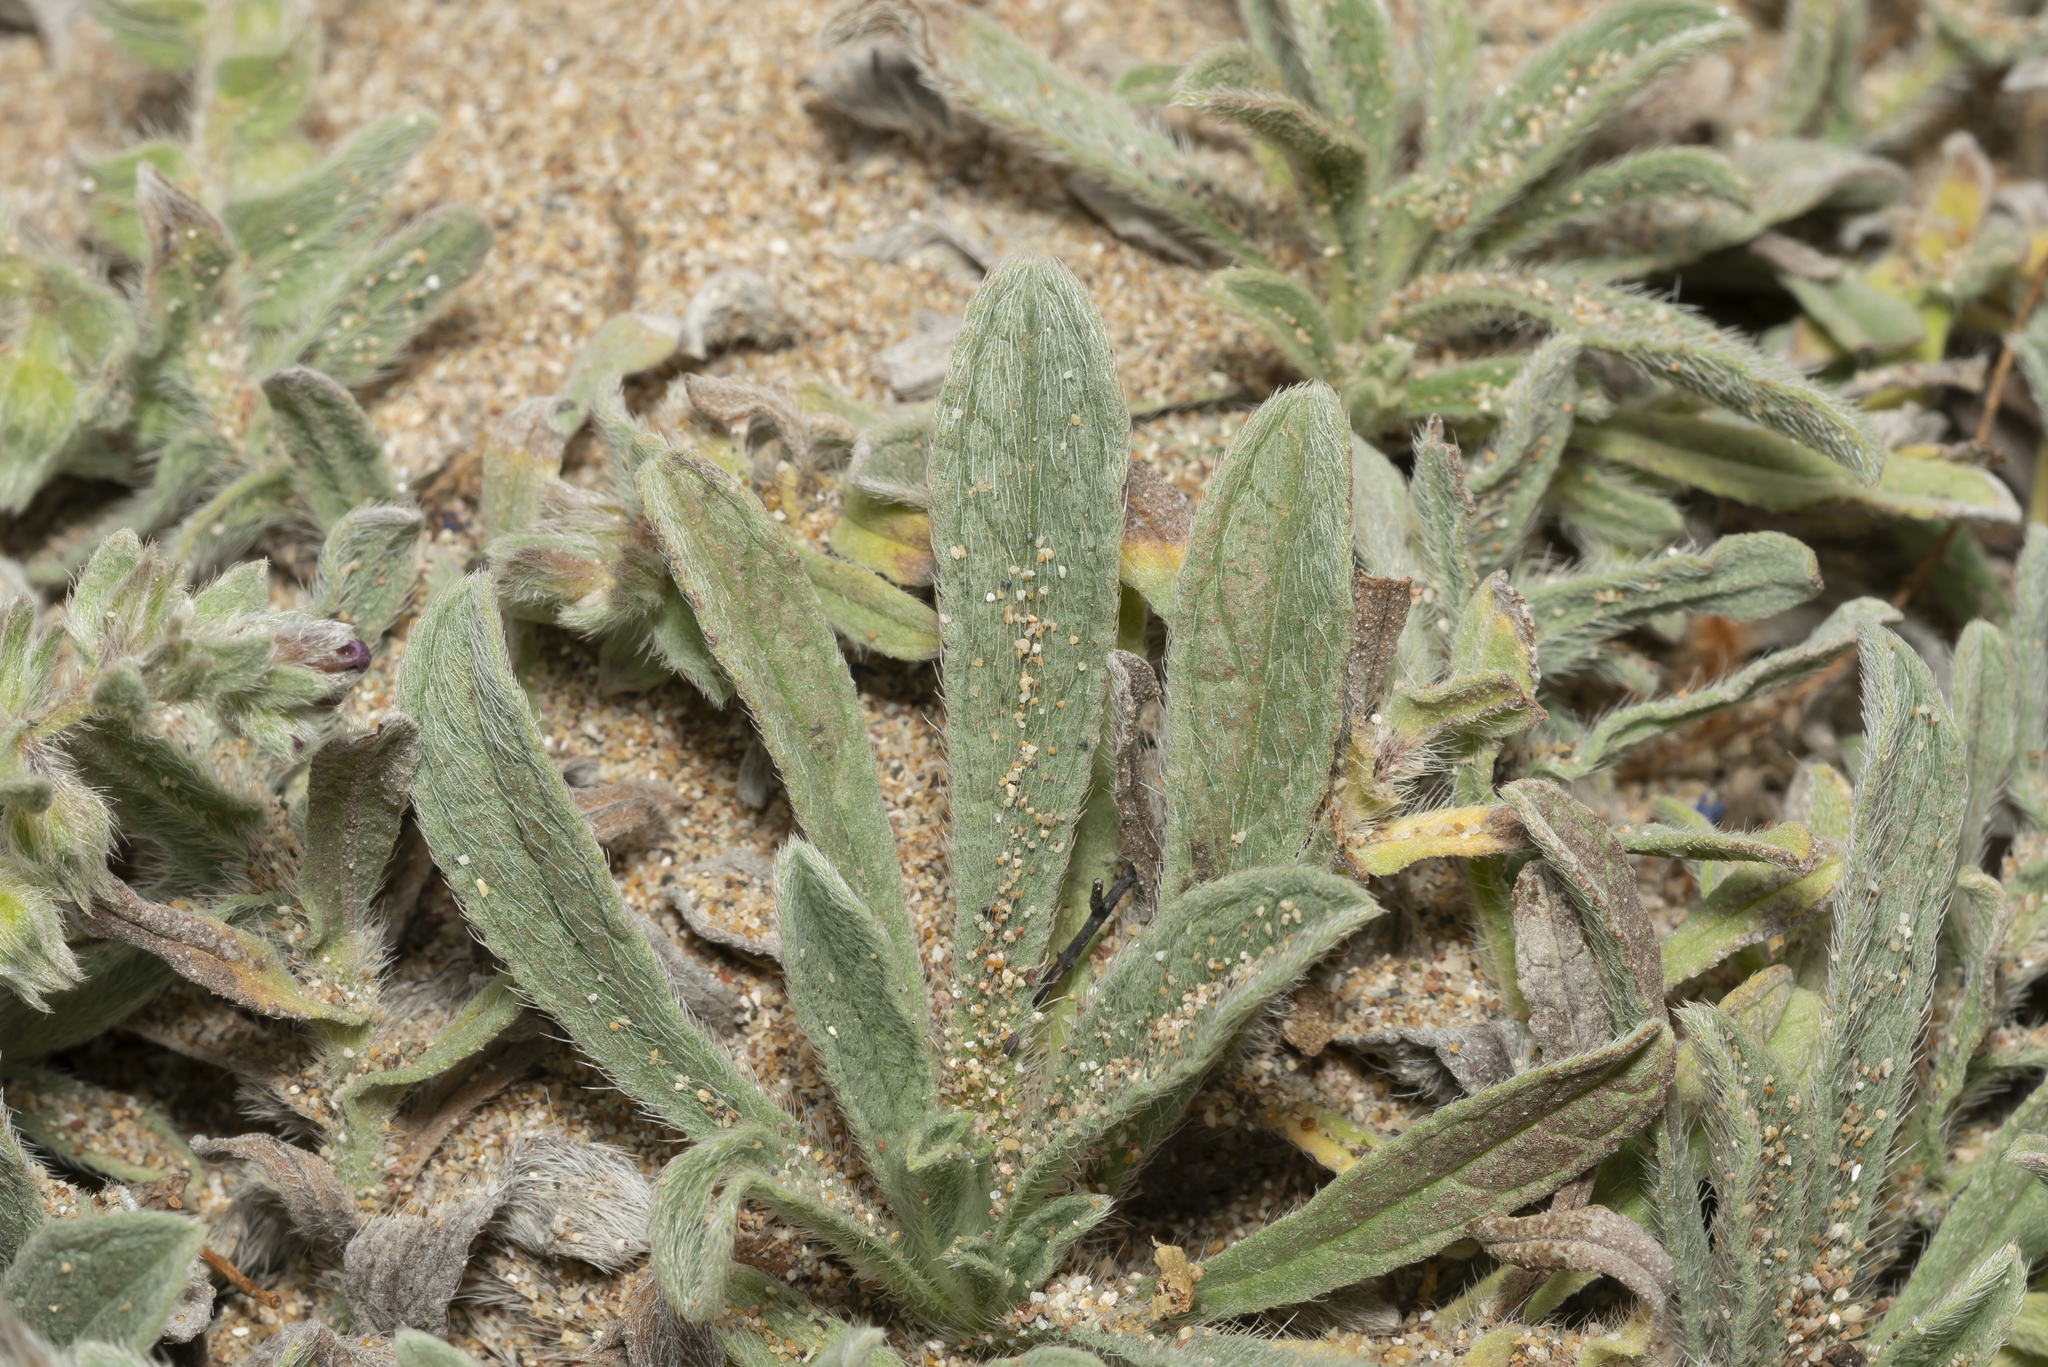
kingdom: Plantae
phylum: Tracheophyta
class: Magnoliopsida
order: Boraginales
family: Boraginaceae
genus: Alkanna
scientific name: Alkanna tinctoria
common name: Dyer's-alkanet
